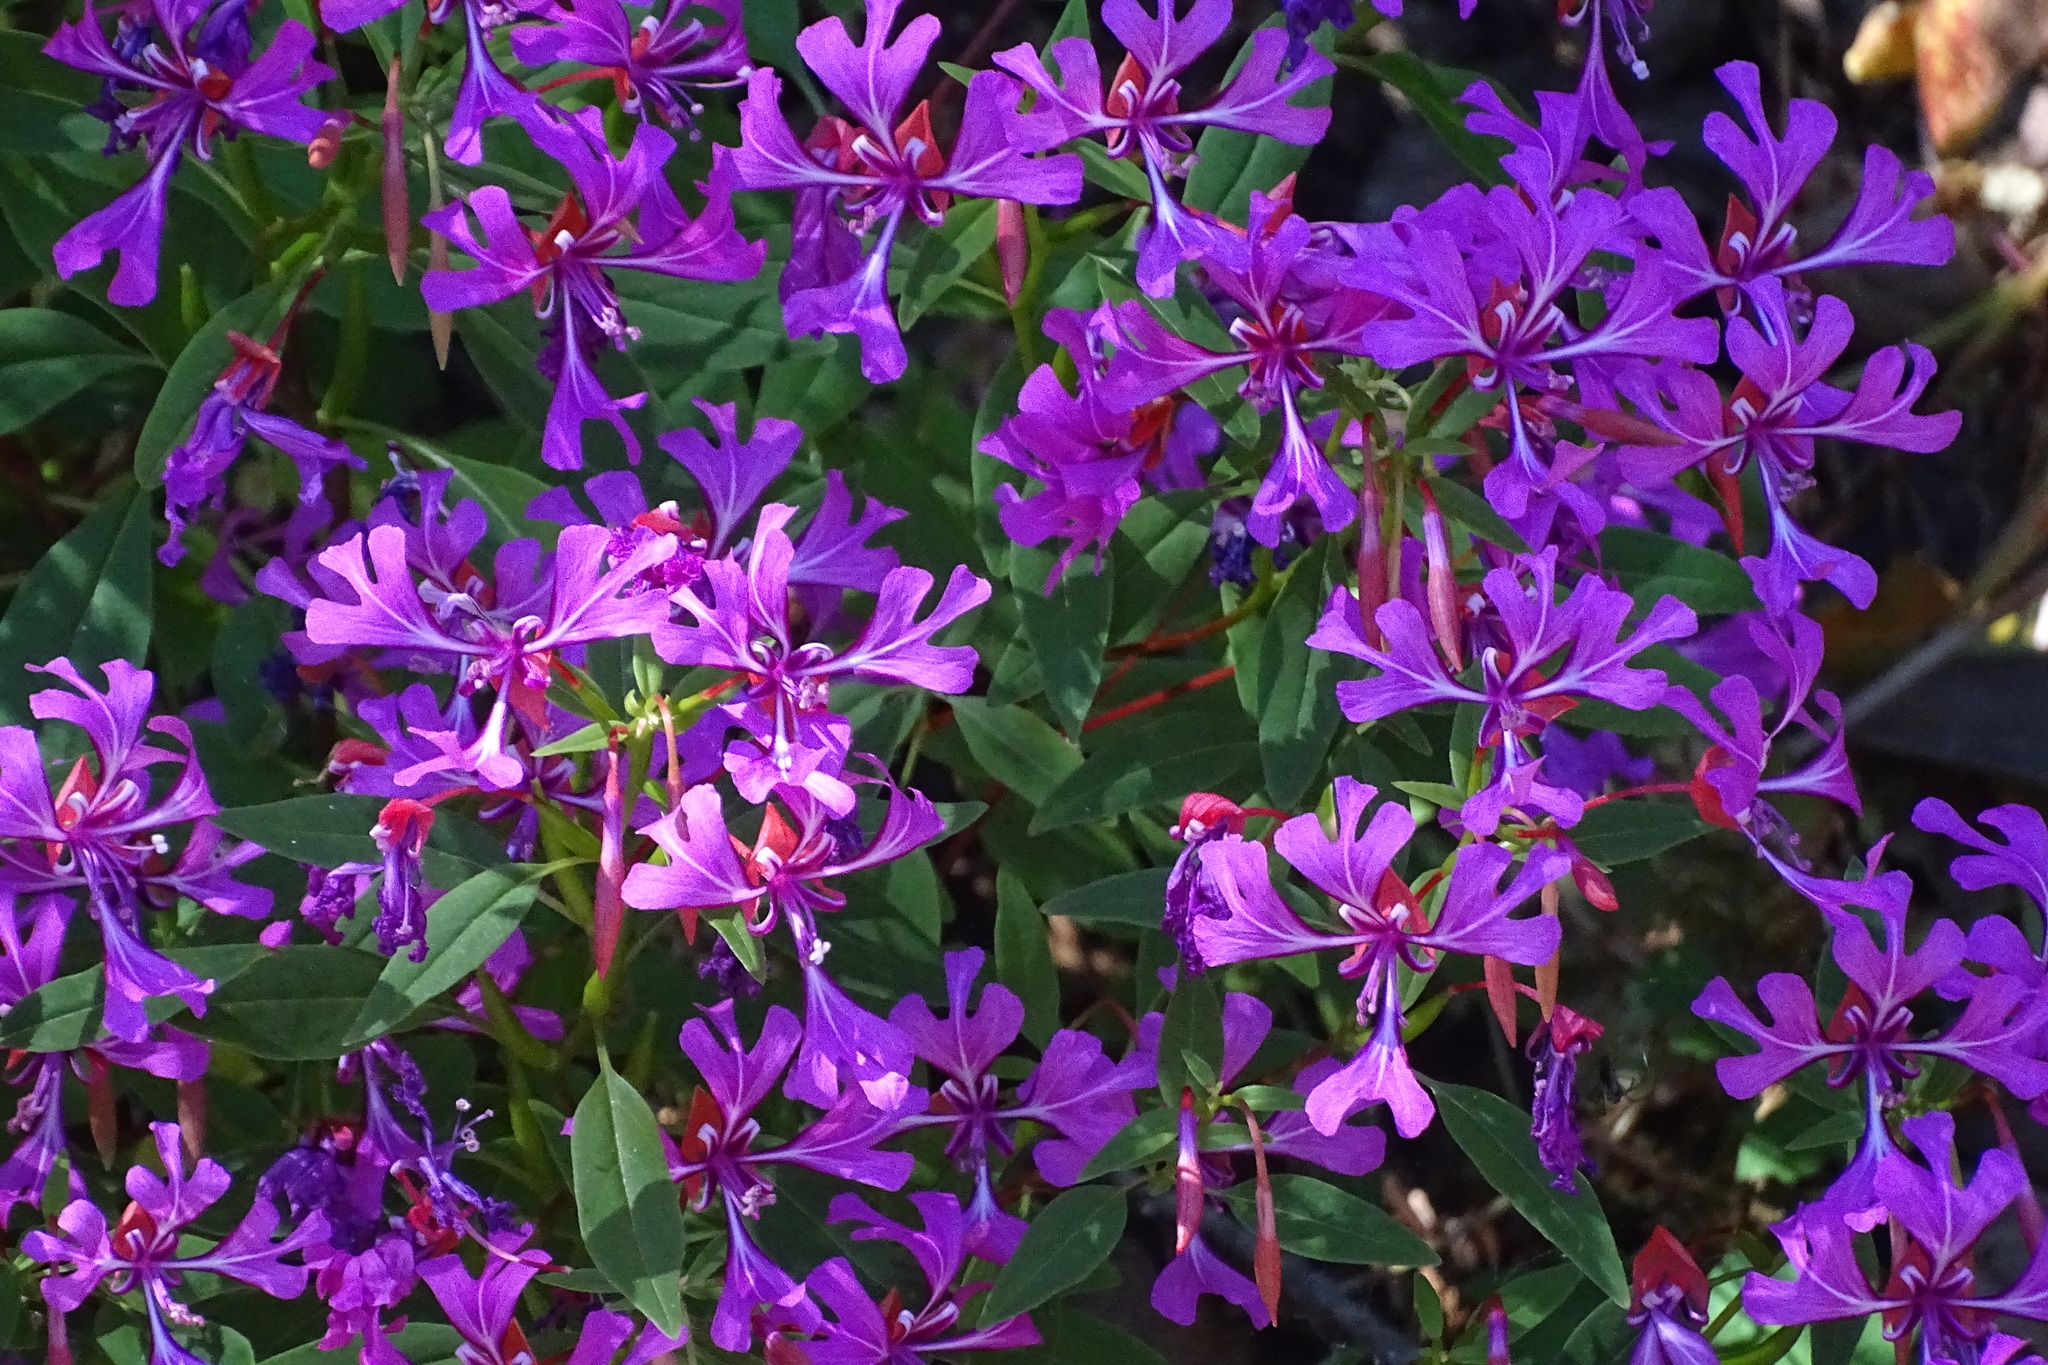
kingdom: Plantae
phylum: Tracheophyta
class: Magnoliopsida
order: Myrtales
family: Onagraceae
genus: Clarkia
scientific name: Clarkia concinna
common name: Red-ribbons
